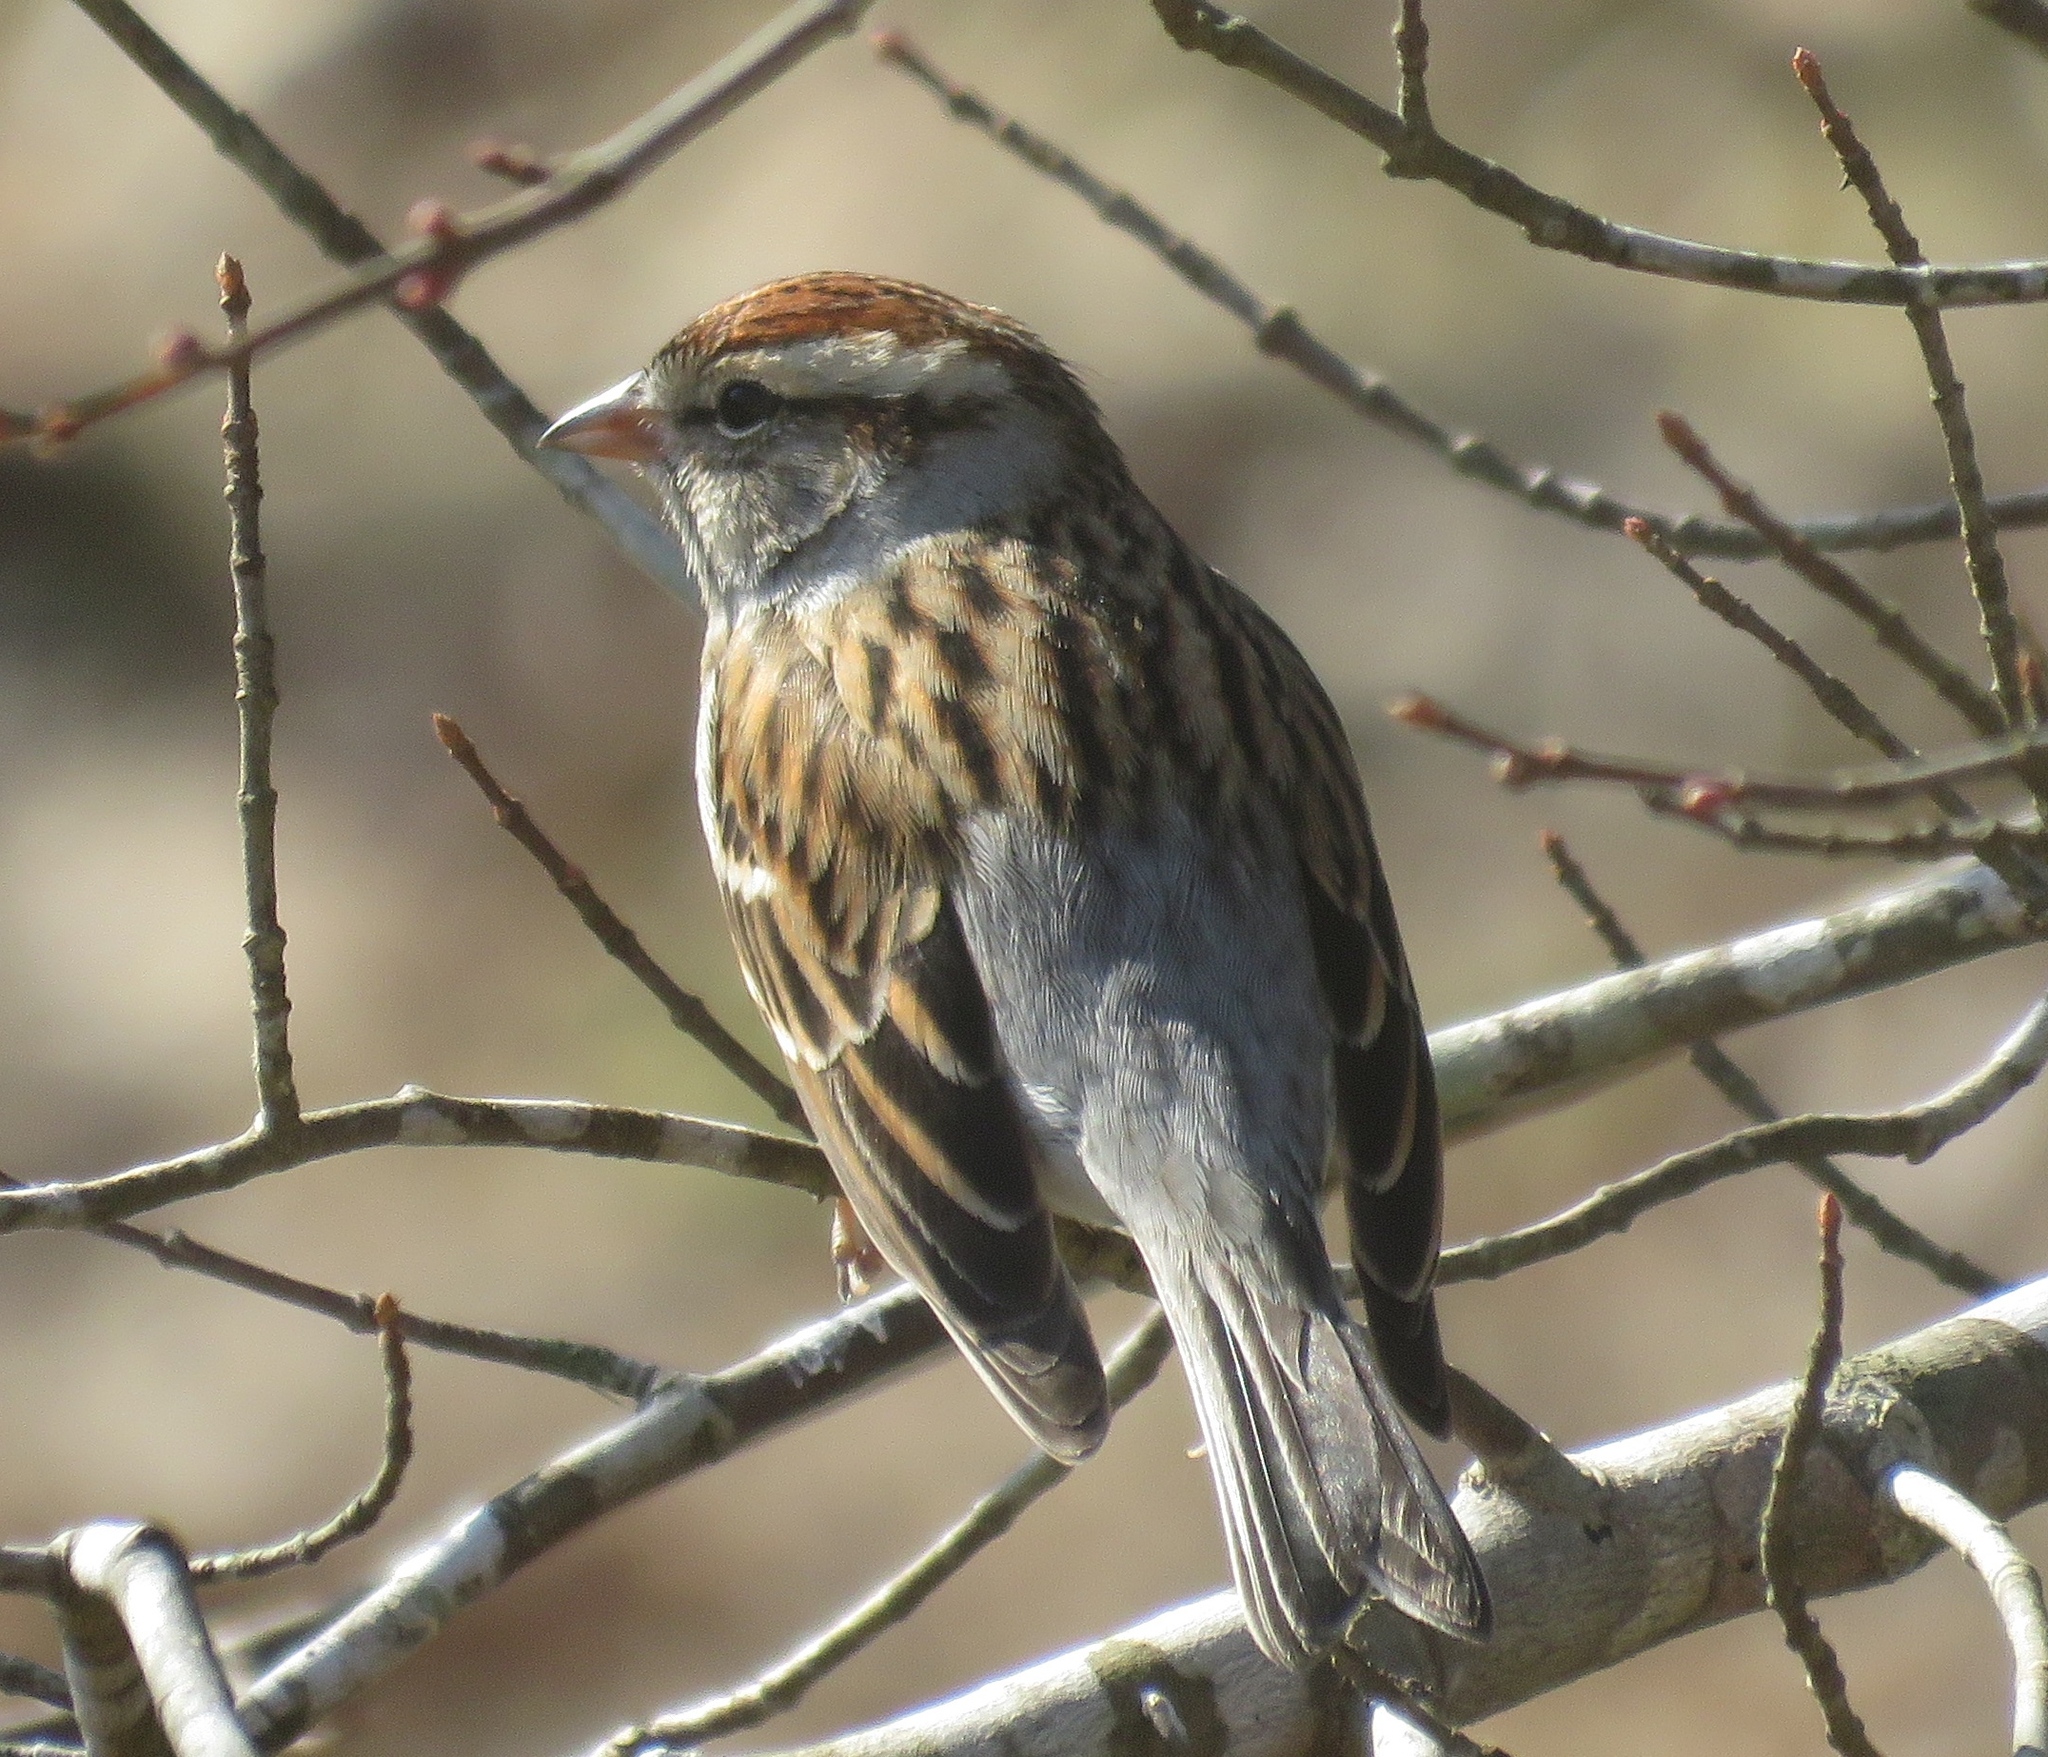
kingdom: Animalia
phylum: Chordata
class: Aves
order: Passeriformes
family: Passerellidae
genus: Spizella
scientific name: Spizella passerina
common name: Chipping sparrow
